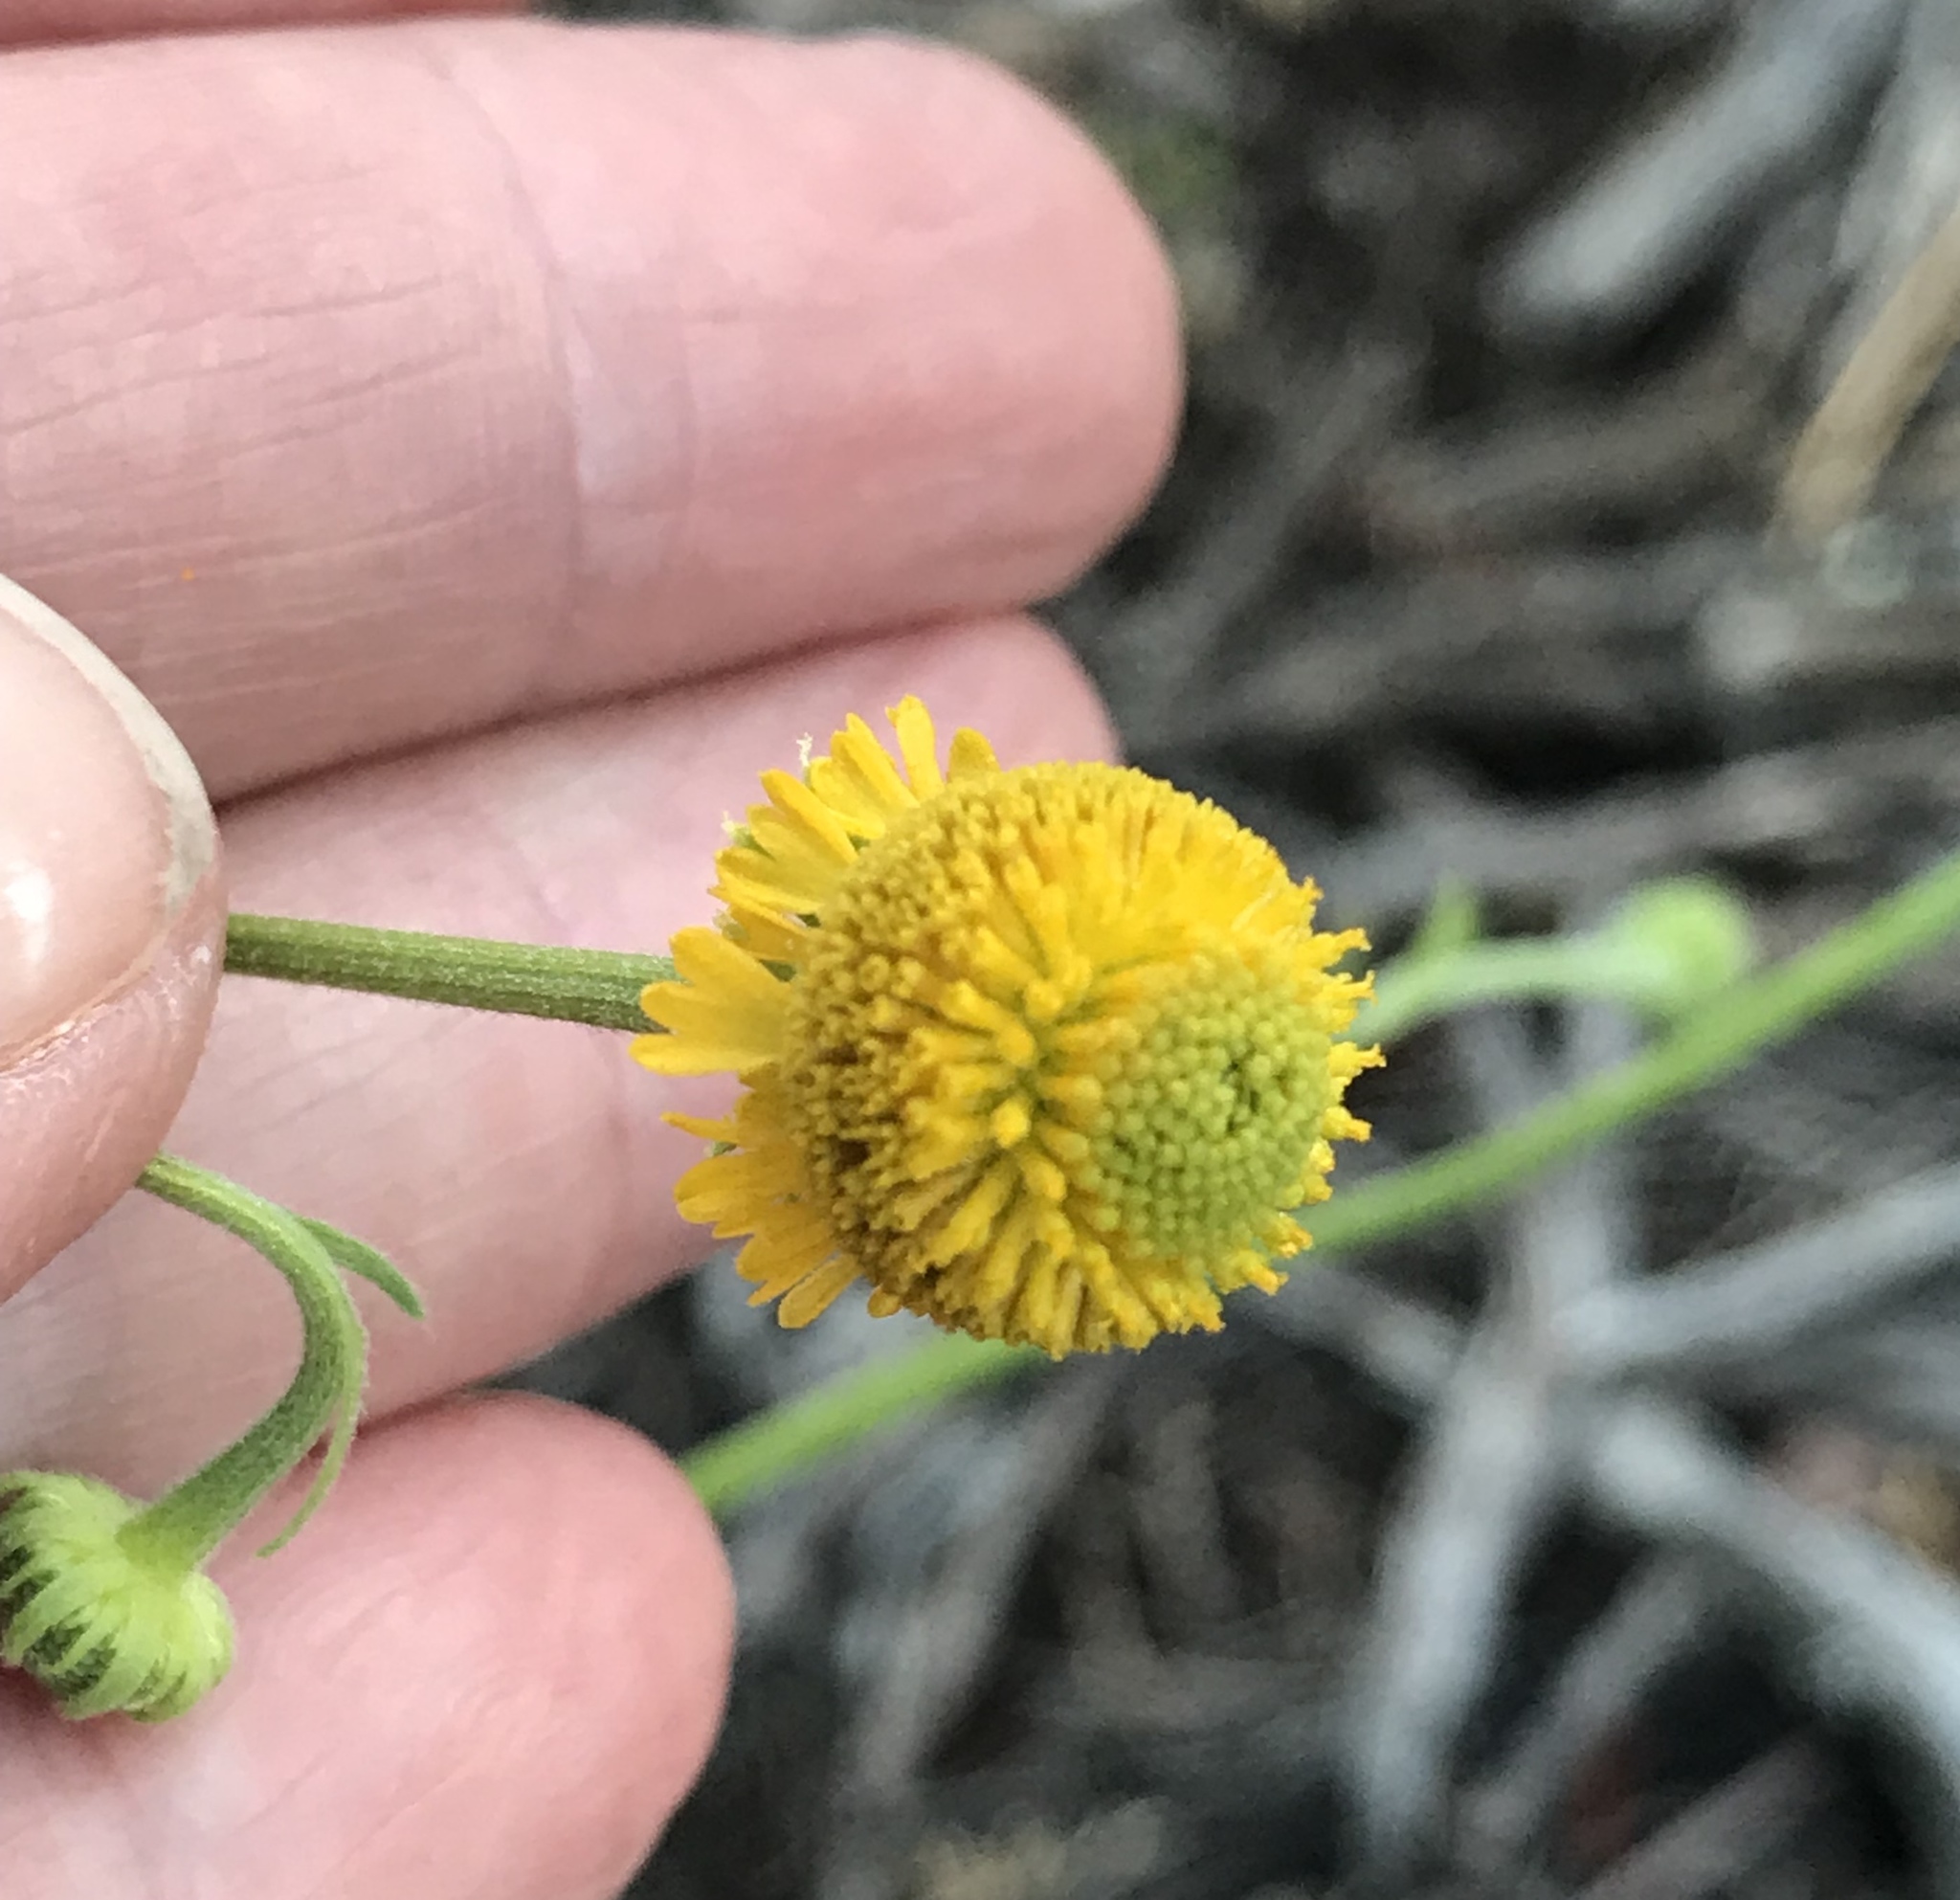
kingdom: Plantae
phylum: Tracheophyta
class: Magnoliopsida
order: Asterales
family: Asteraceae
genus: Helenium
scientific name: Helenium puberulum
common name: Sneezewort
